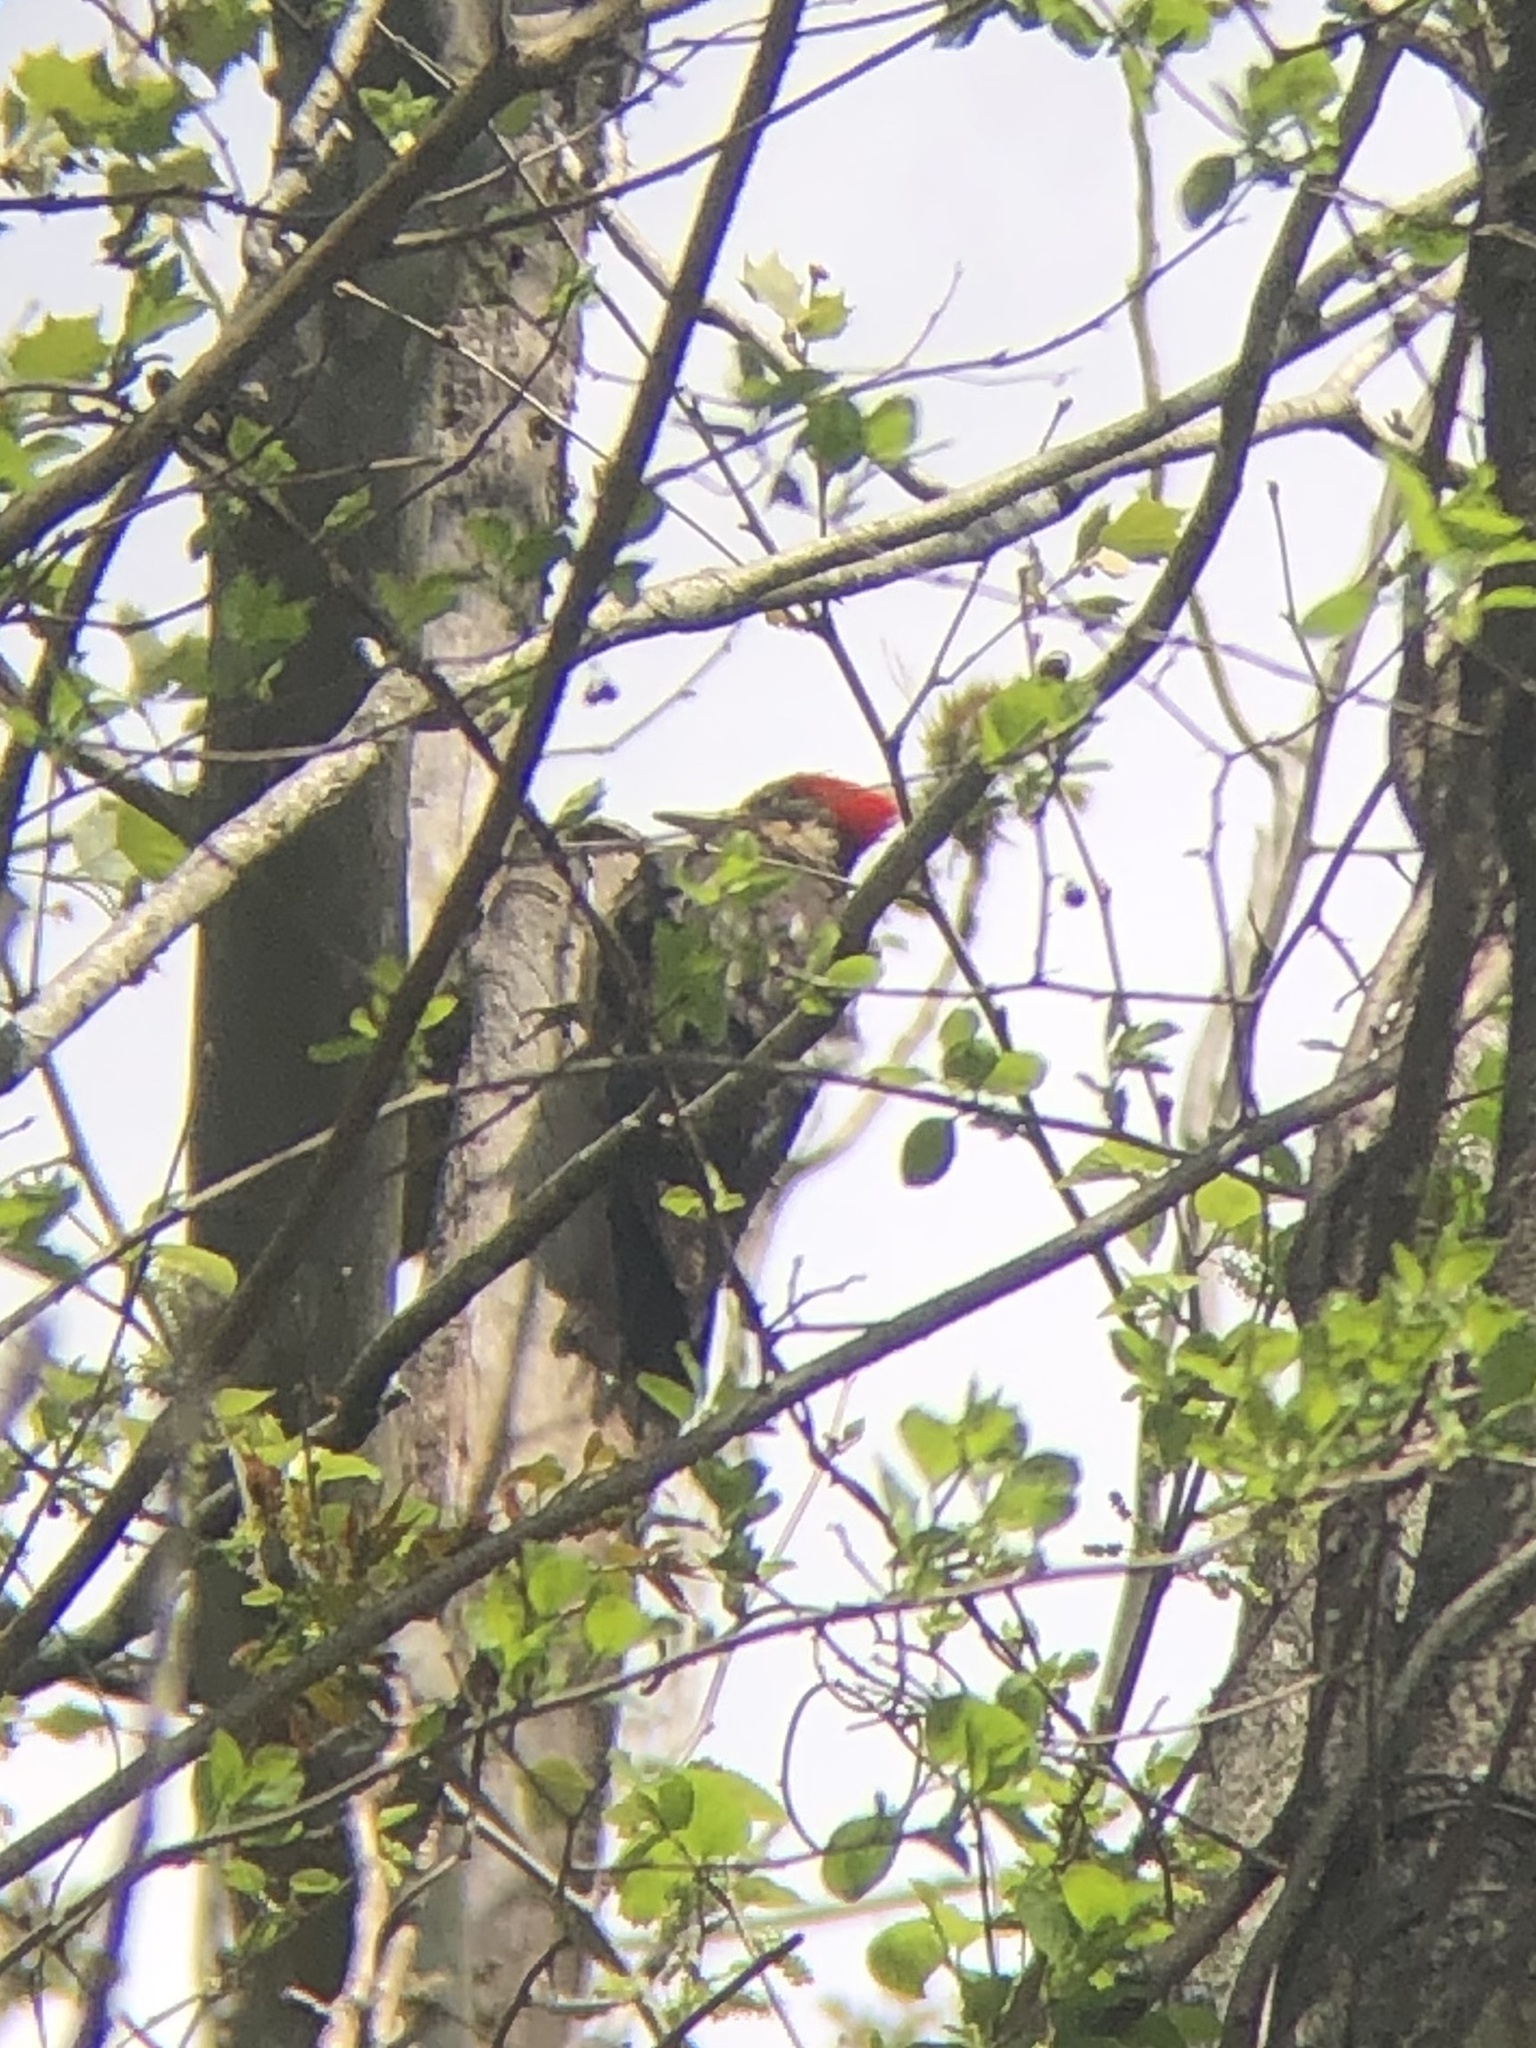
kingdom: Animalia
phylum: Chordata
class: Aves
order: Piciformes
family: Picidae
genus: Dryocopus
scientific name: Dryocopus pileatus
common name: Pileated woodpecker
